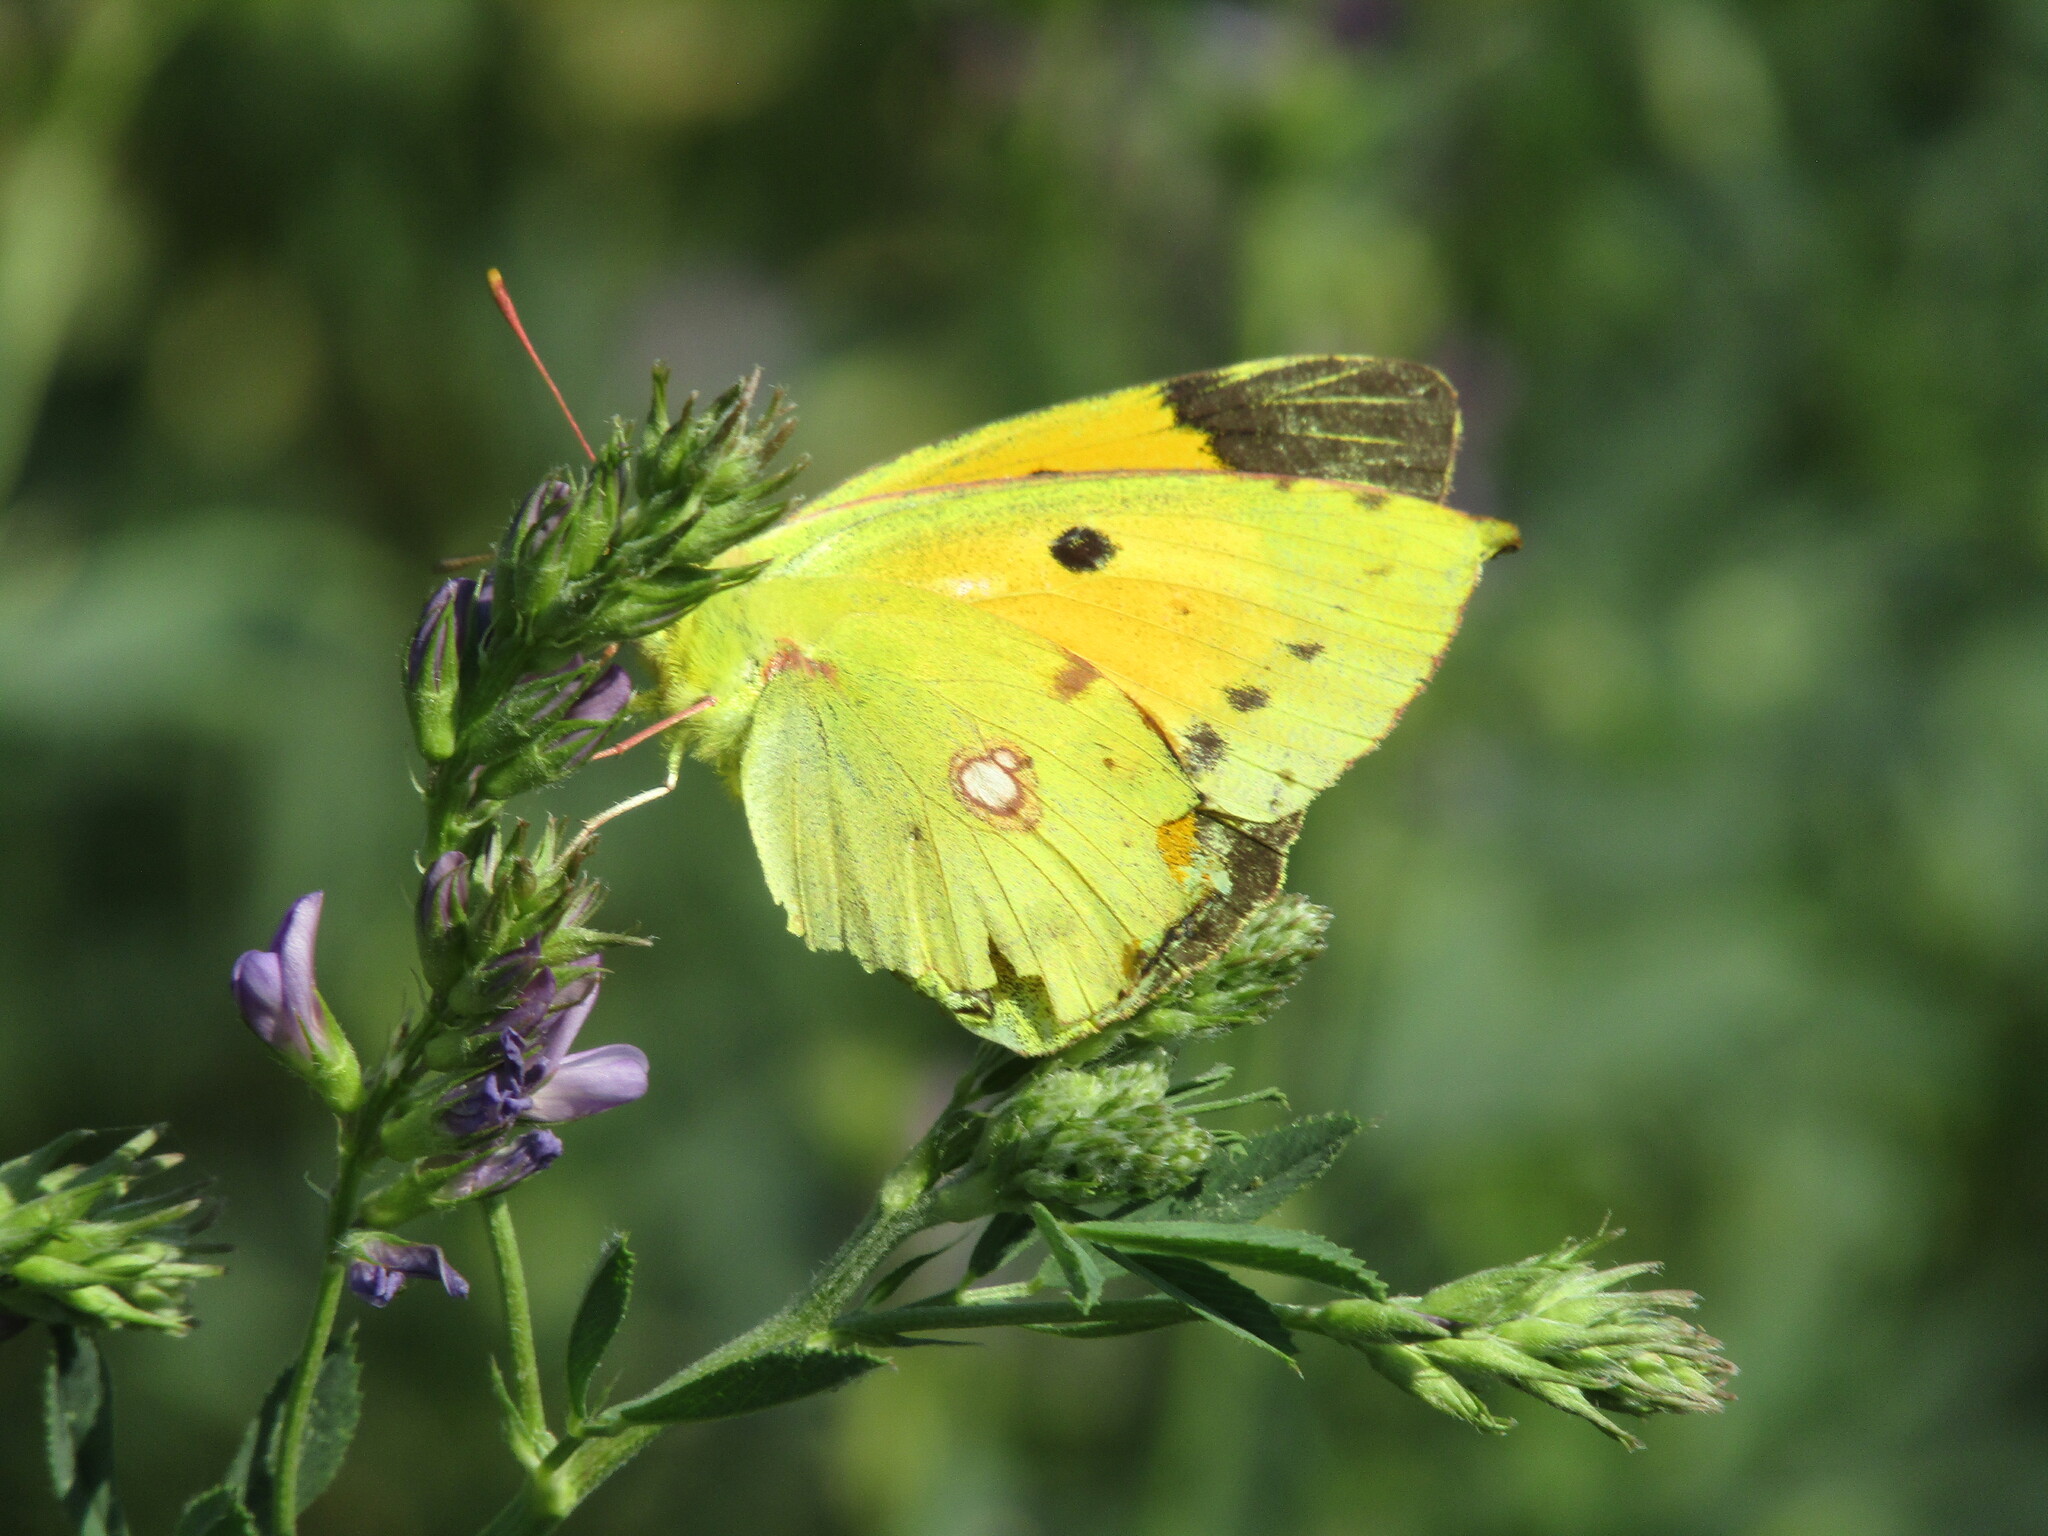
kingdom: Animalia
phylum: Arthropoda
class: Insecta
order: Lepidoptera
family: Pieridae
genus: Colias
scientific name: Colias croceus
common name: Clouded yellow
